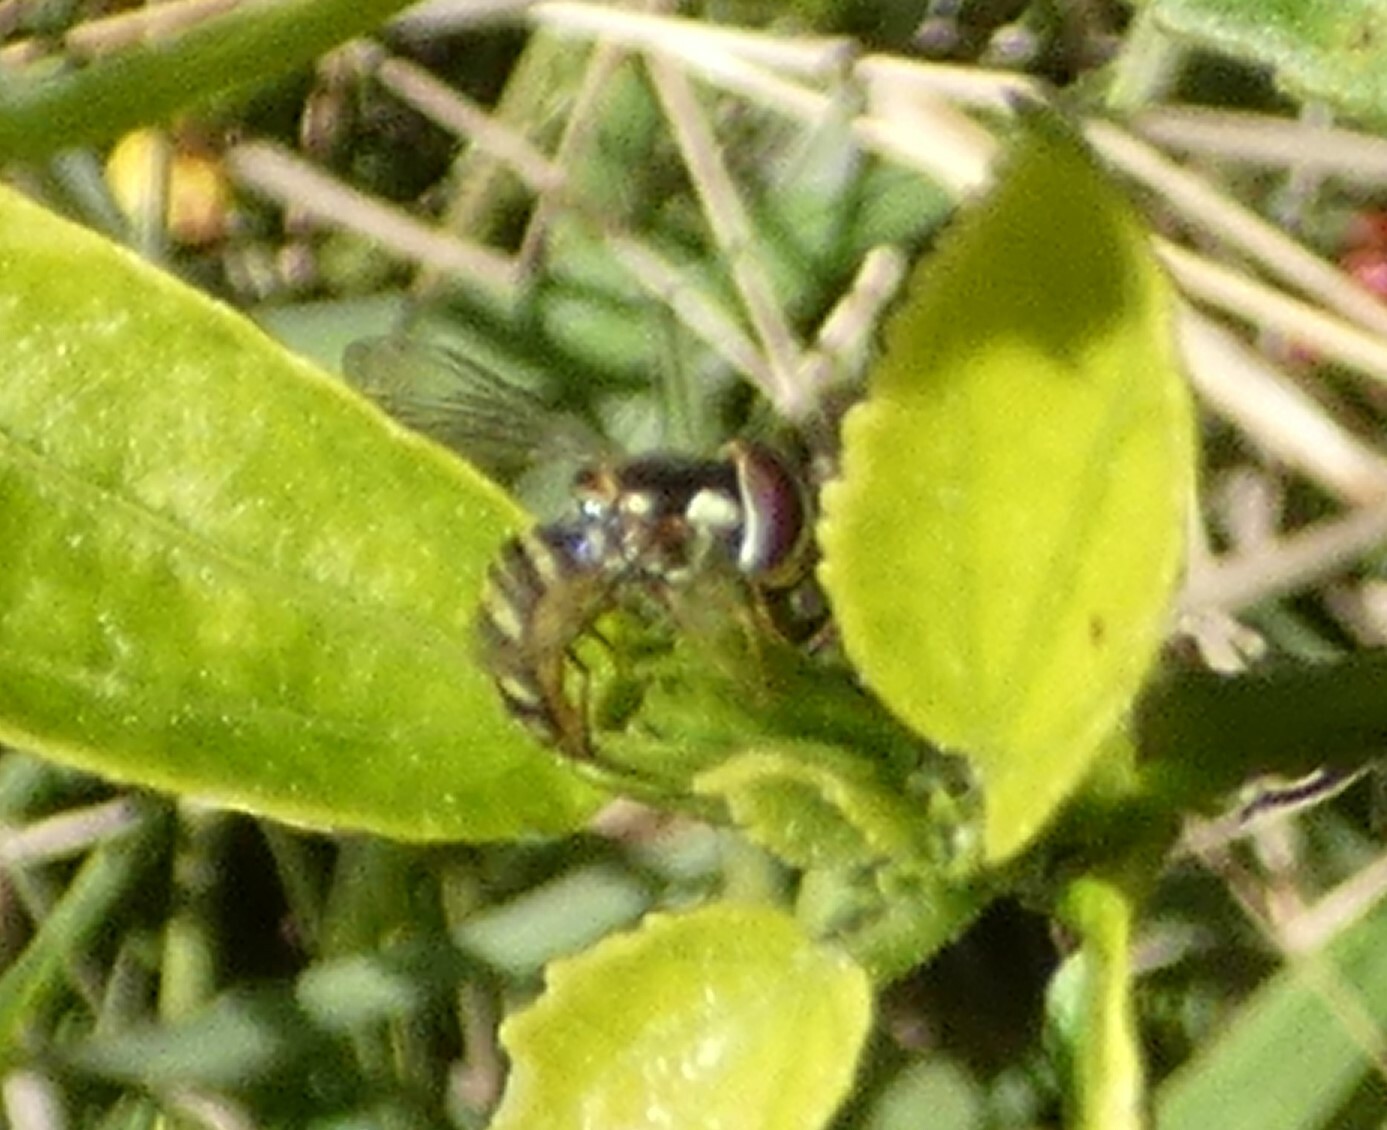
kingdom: Animalia
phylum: Arthropoda
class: Insecta
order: Diptera
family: Syrphidae
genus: Allograpta
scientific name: Allograpta obliqua
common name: Common oblique syrphid
